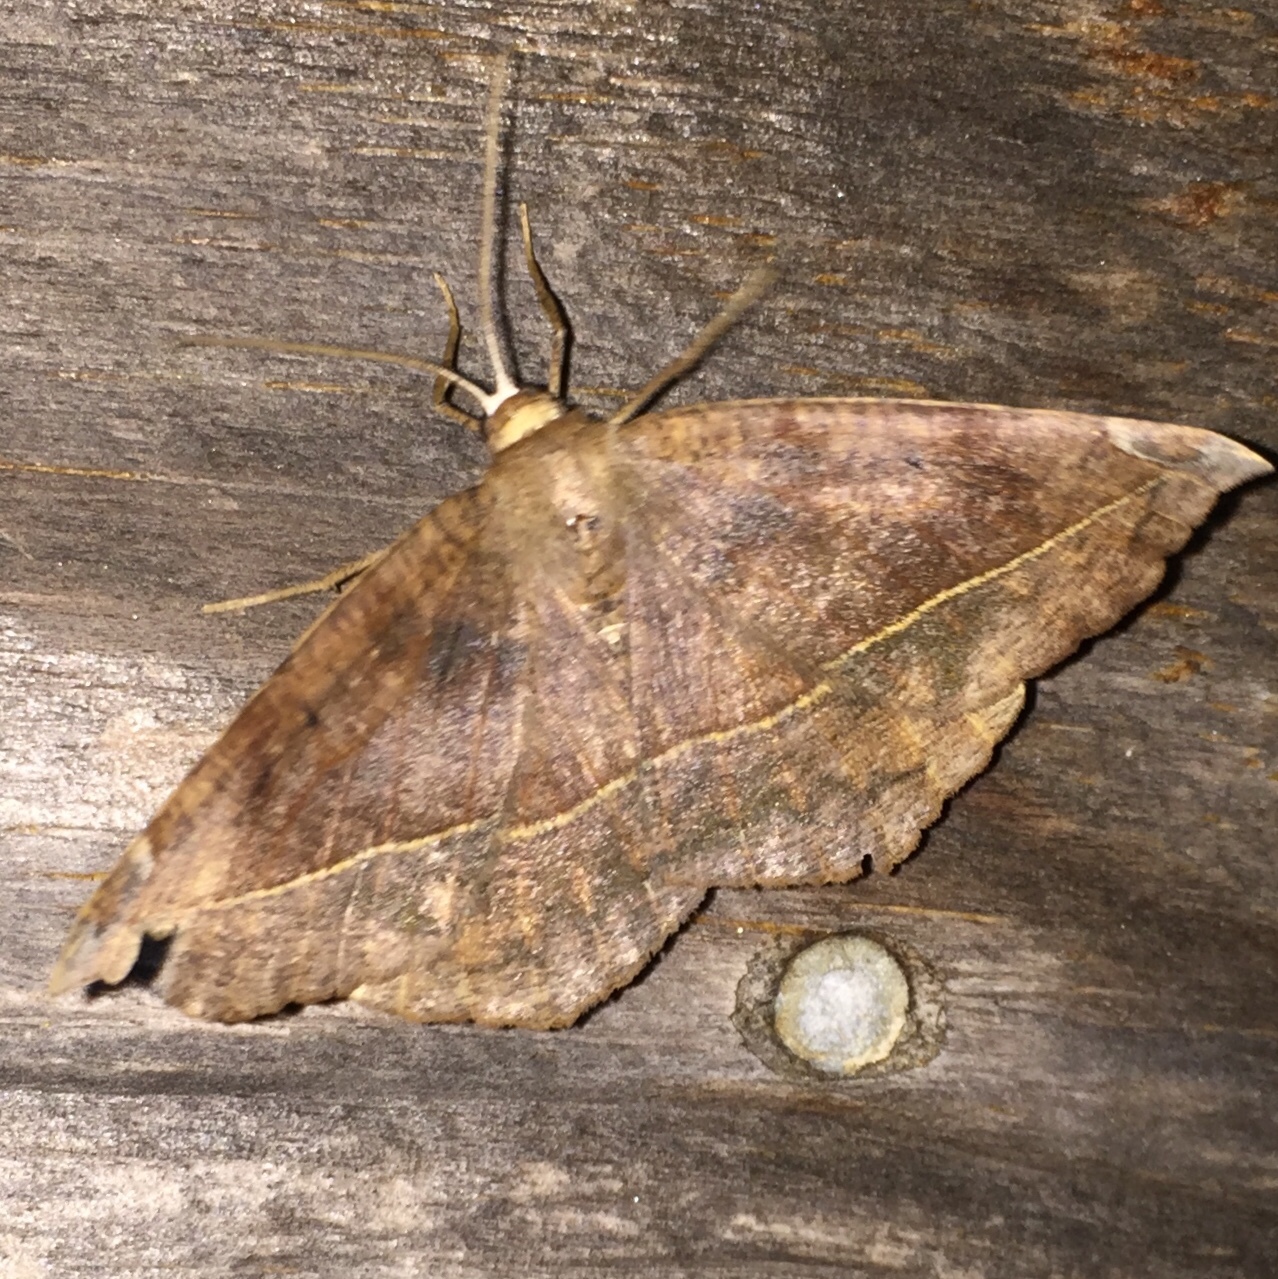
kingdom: Animalia
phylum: Arthropoda
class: Insecta
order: Lepidoptera
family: Geometridae
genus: Eutrapela
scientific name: Eutrapela clemataria
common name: Curved-toothed geometer
